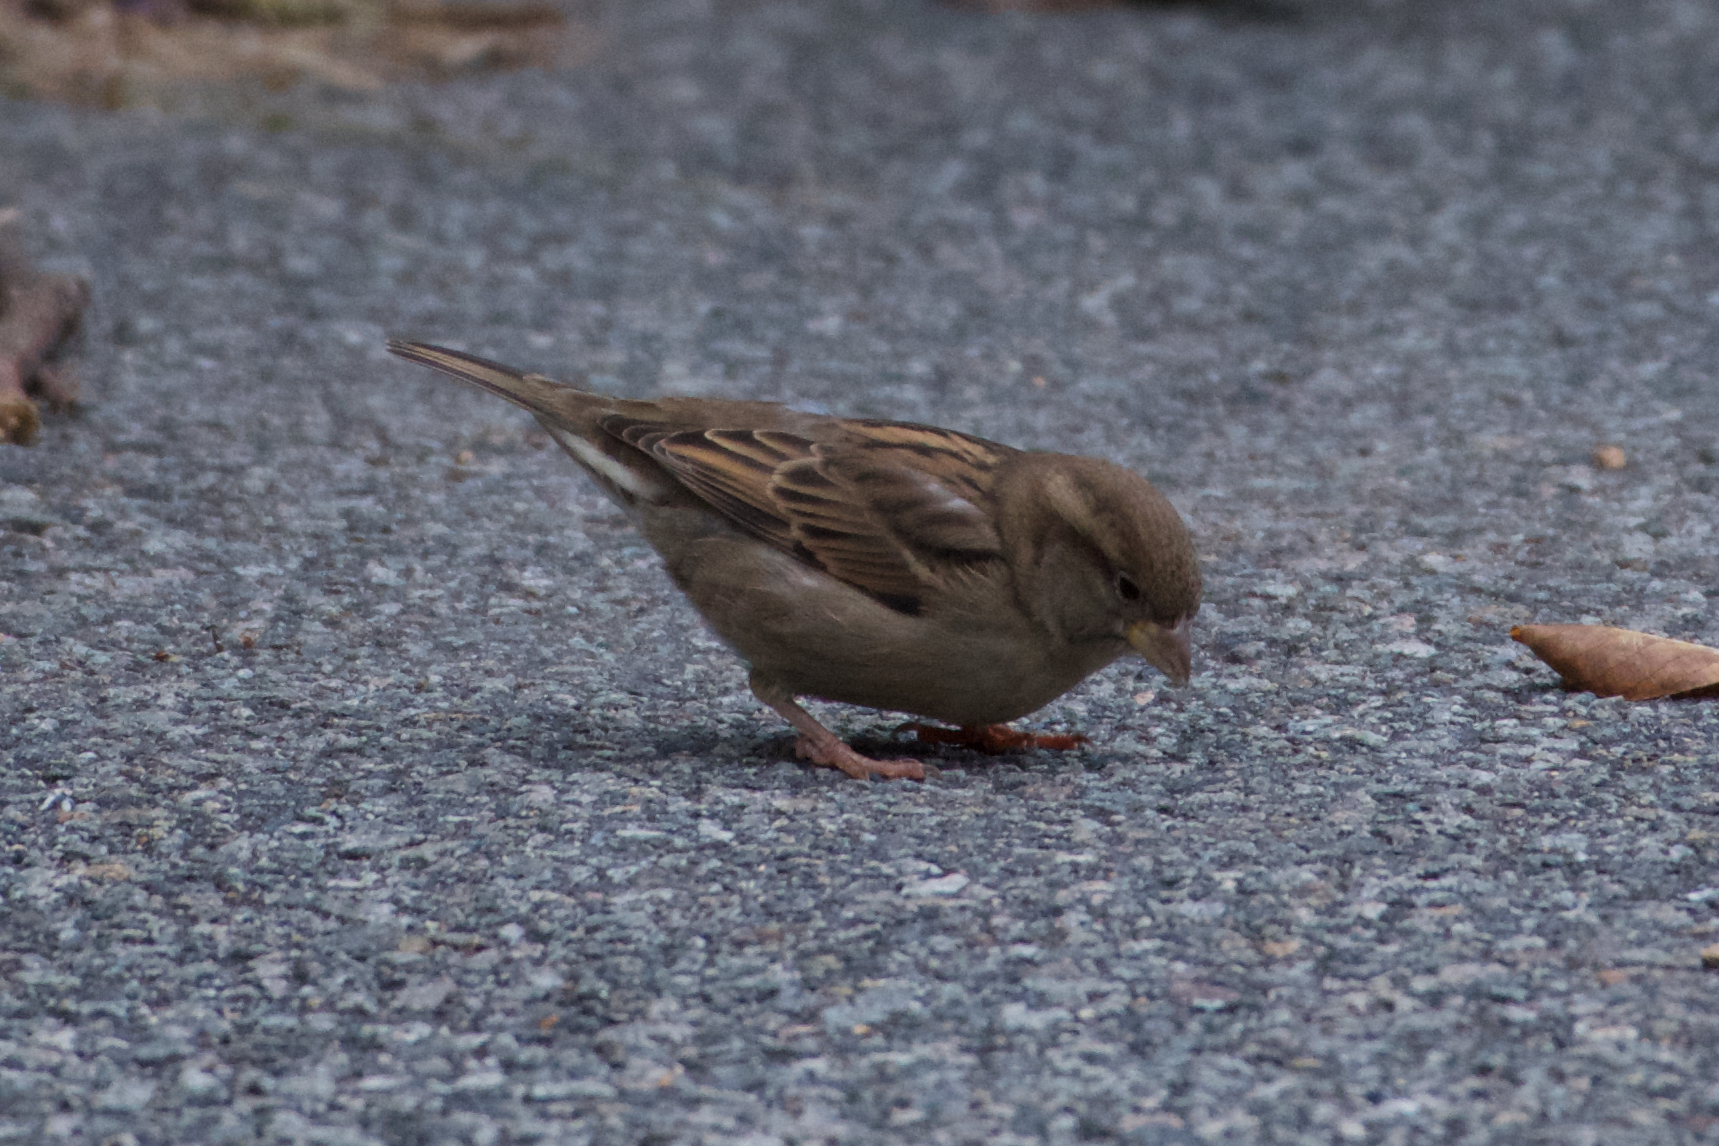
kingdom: Animalia
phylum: Chordata
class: Aves
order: Passeriformes
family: Passeridae
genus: Passer
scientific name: Passer domesticus
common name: House sparrow
